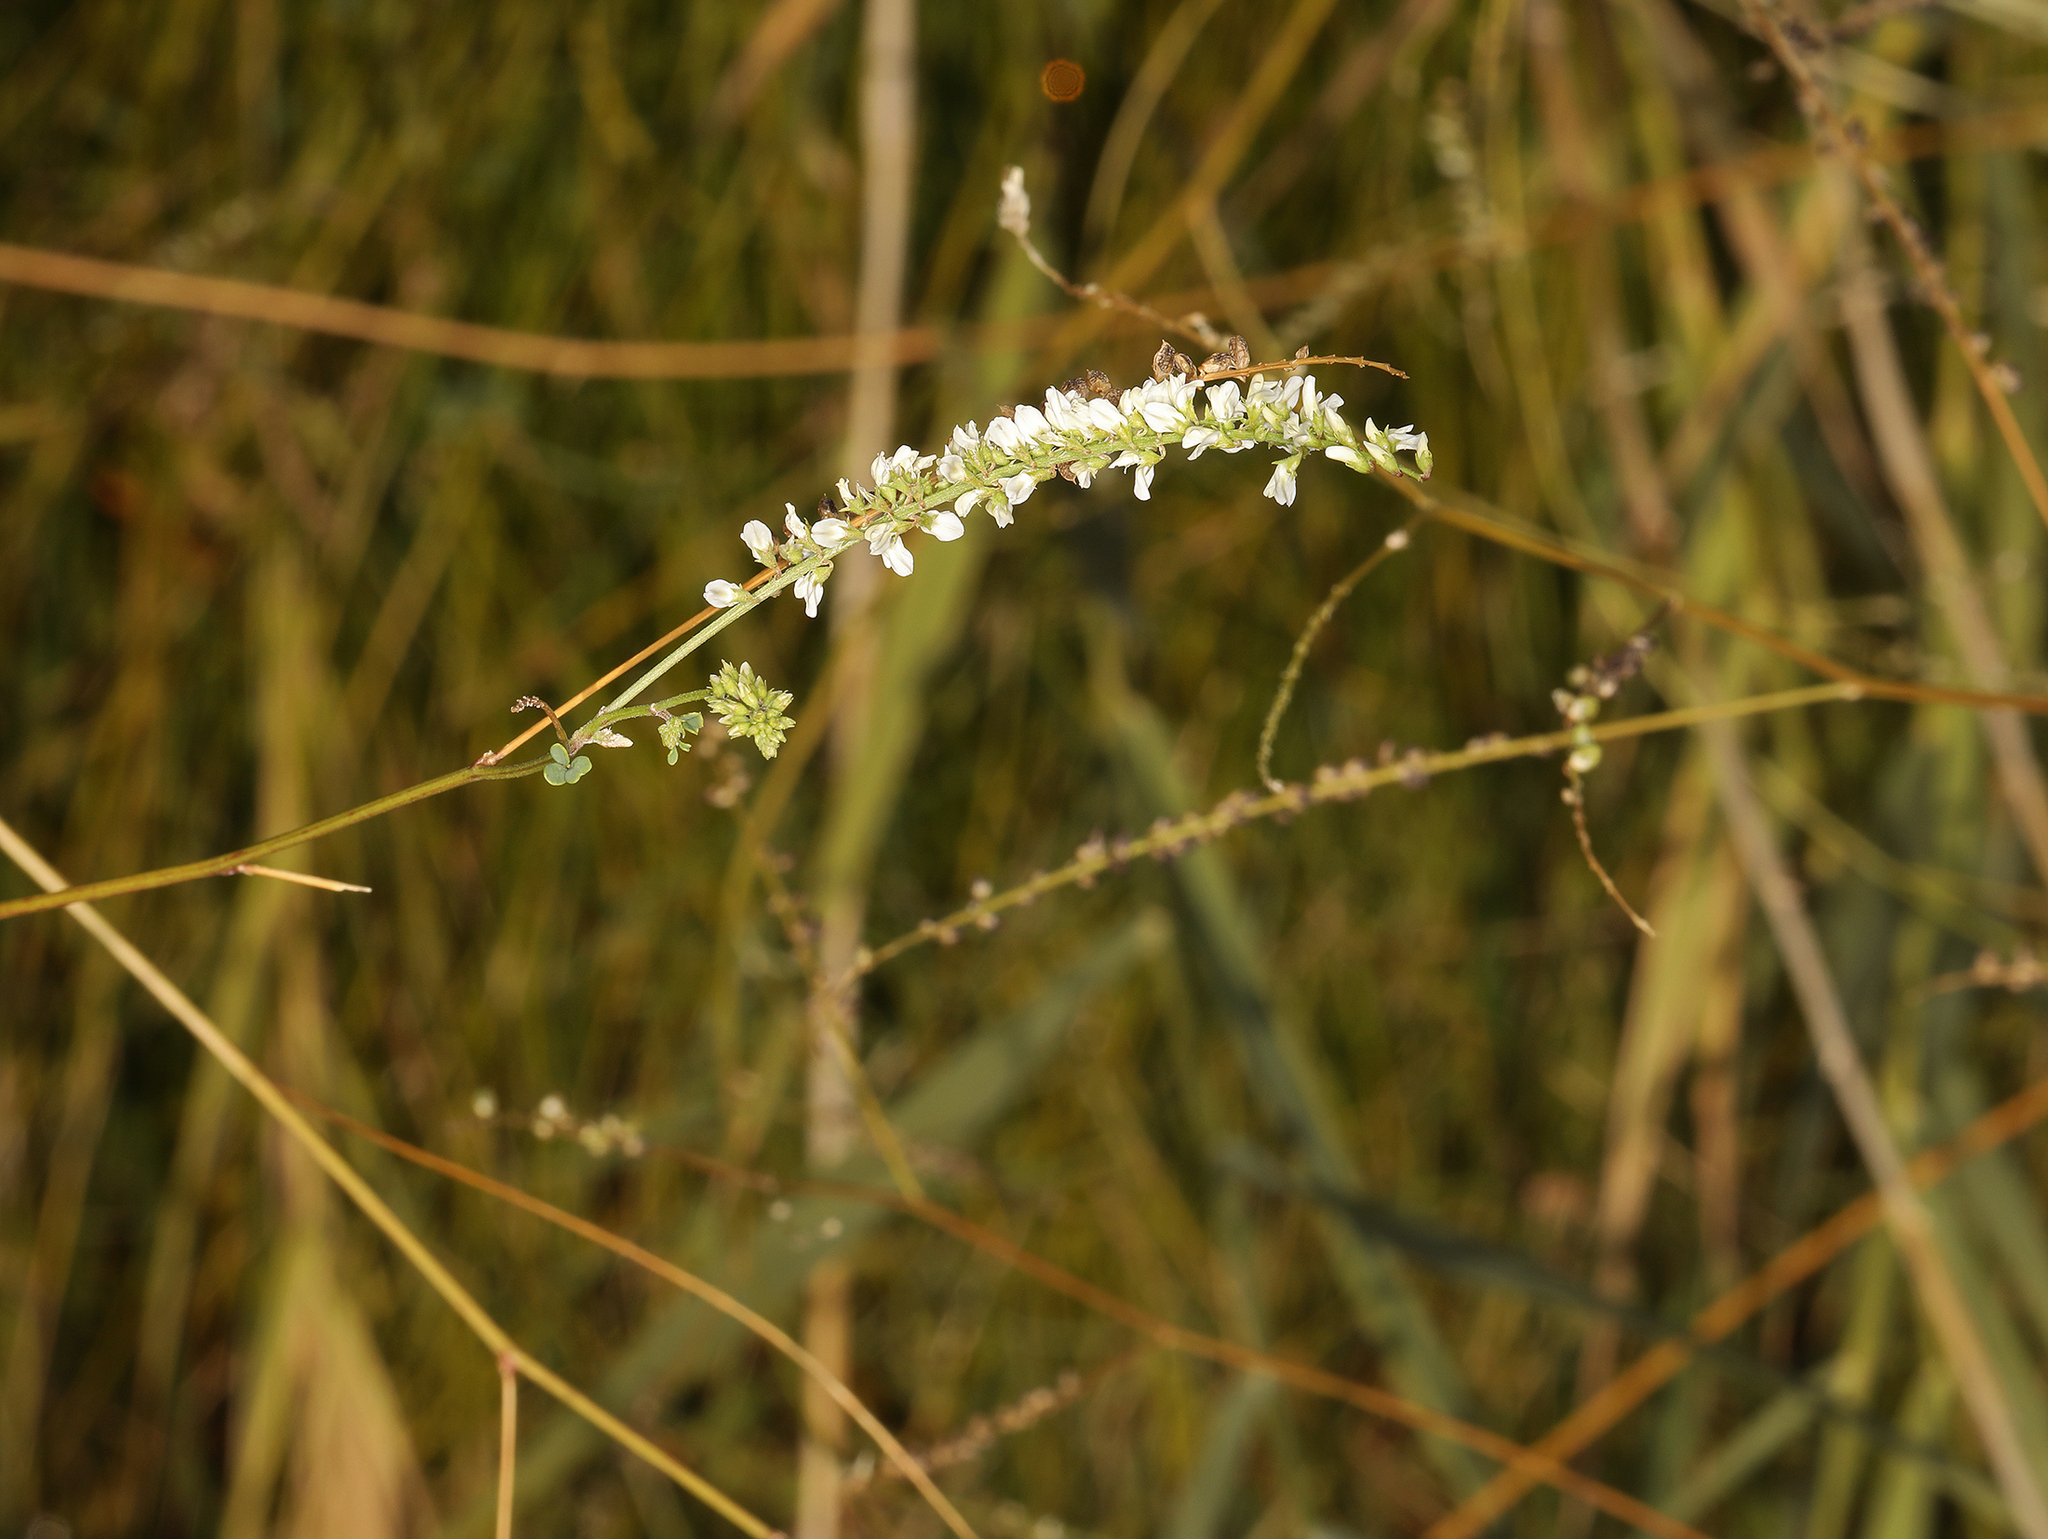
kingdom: Plantae
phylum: Tracheophyta
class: Magnoliopsida
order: Fabales
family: Fabaceae
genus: Melilotus
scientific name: Melilotus albus
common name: White melilot
